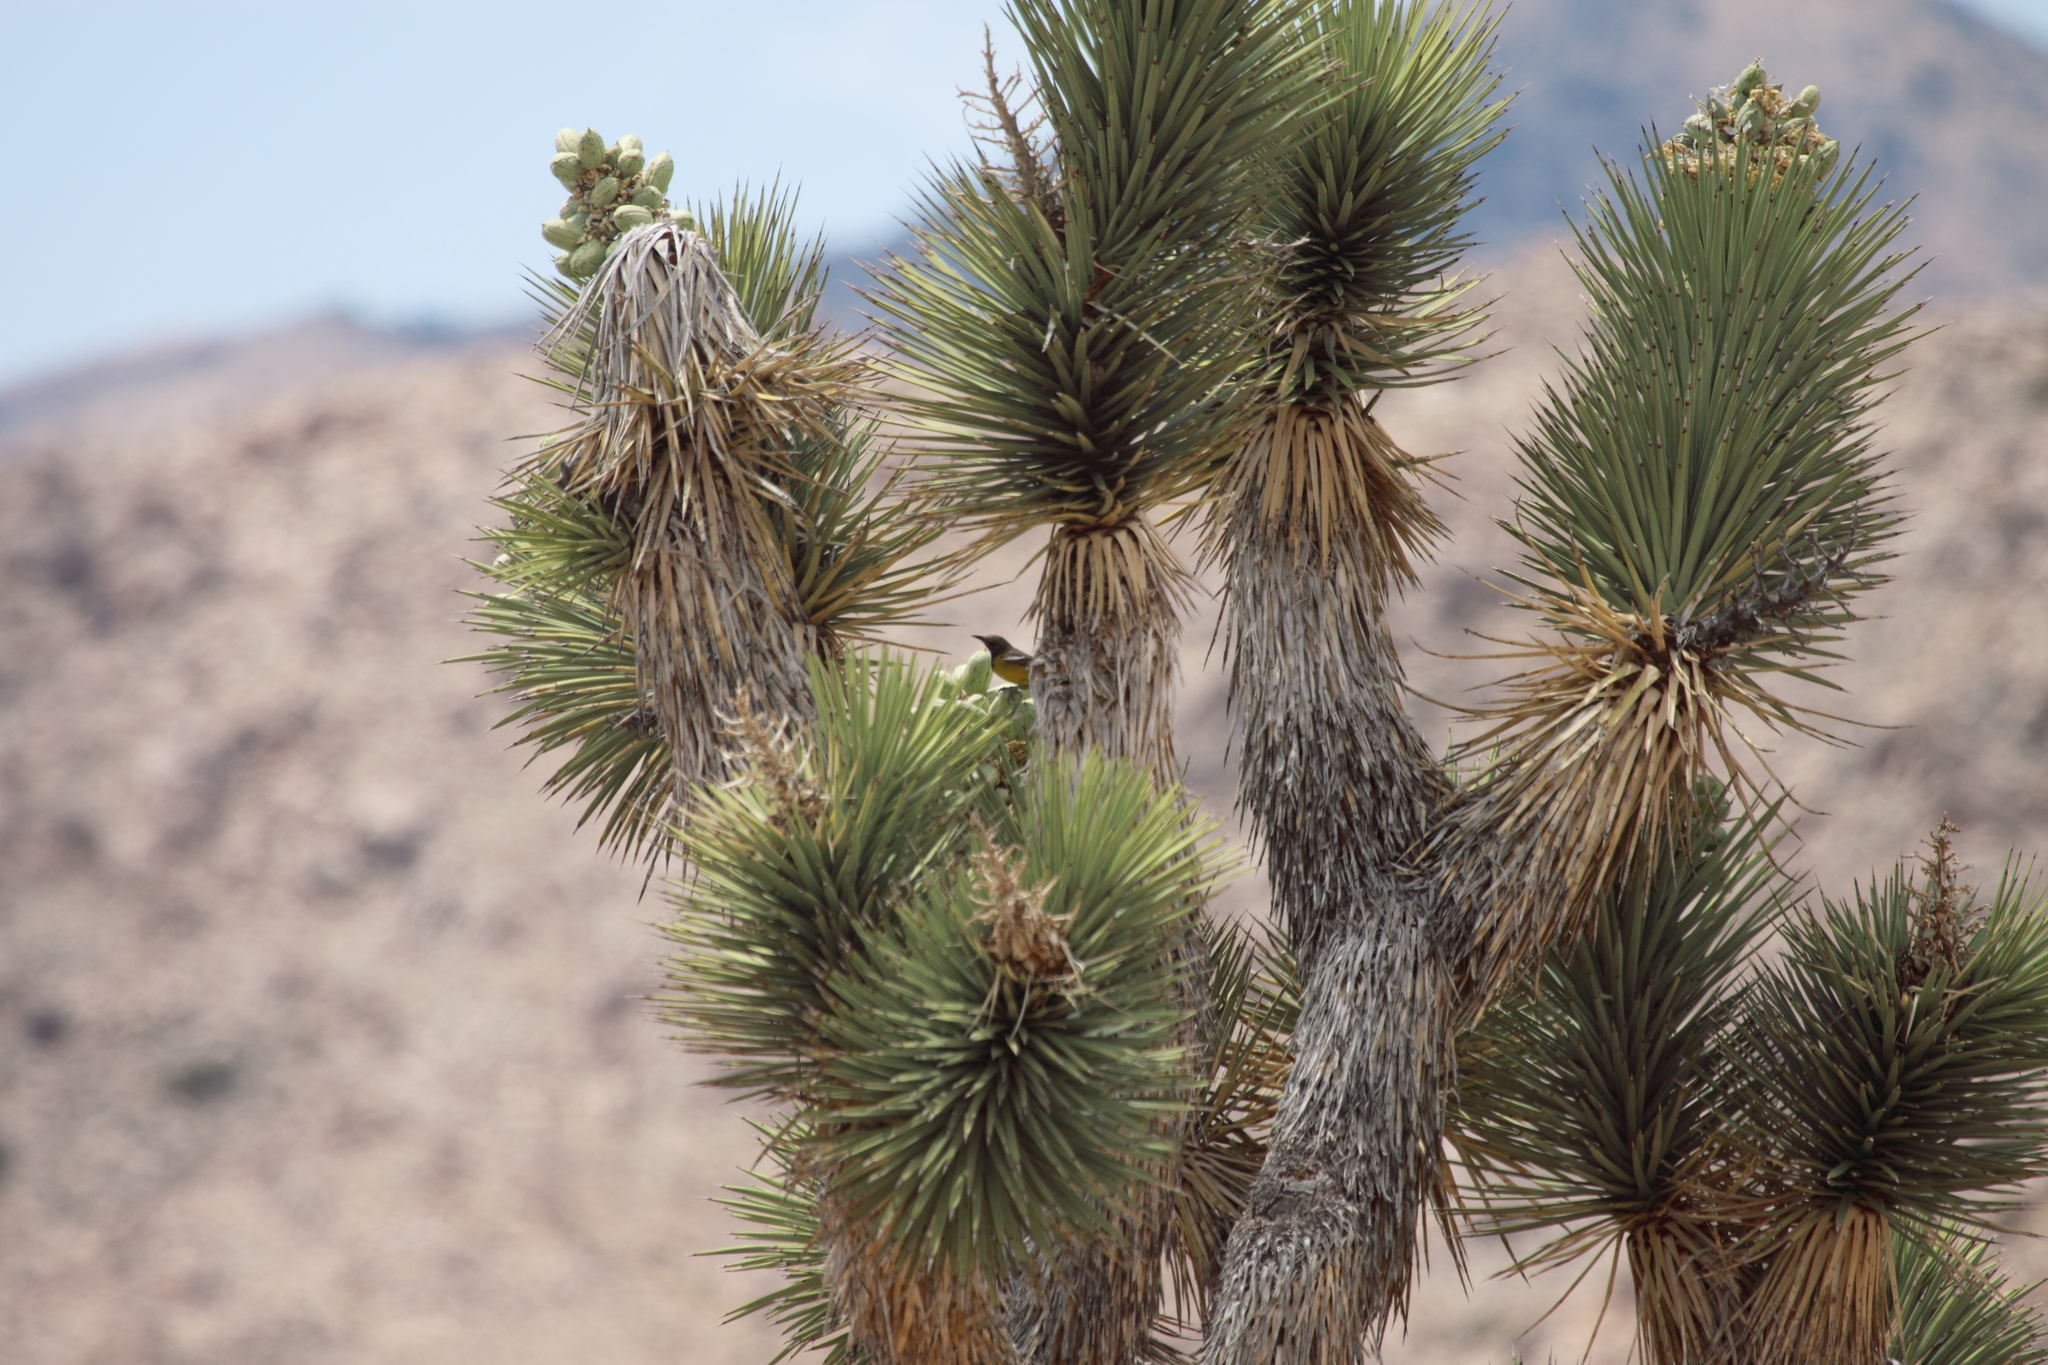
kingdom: Plantae
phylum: Tracheophyta
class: Liliopsida
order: Asparagales
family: Asparagaceae
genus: Yucca
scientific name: Yucca brevifolia
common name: Joshua tree
